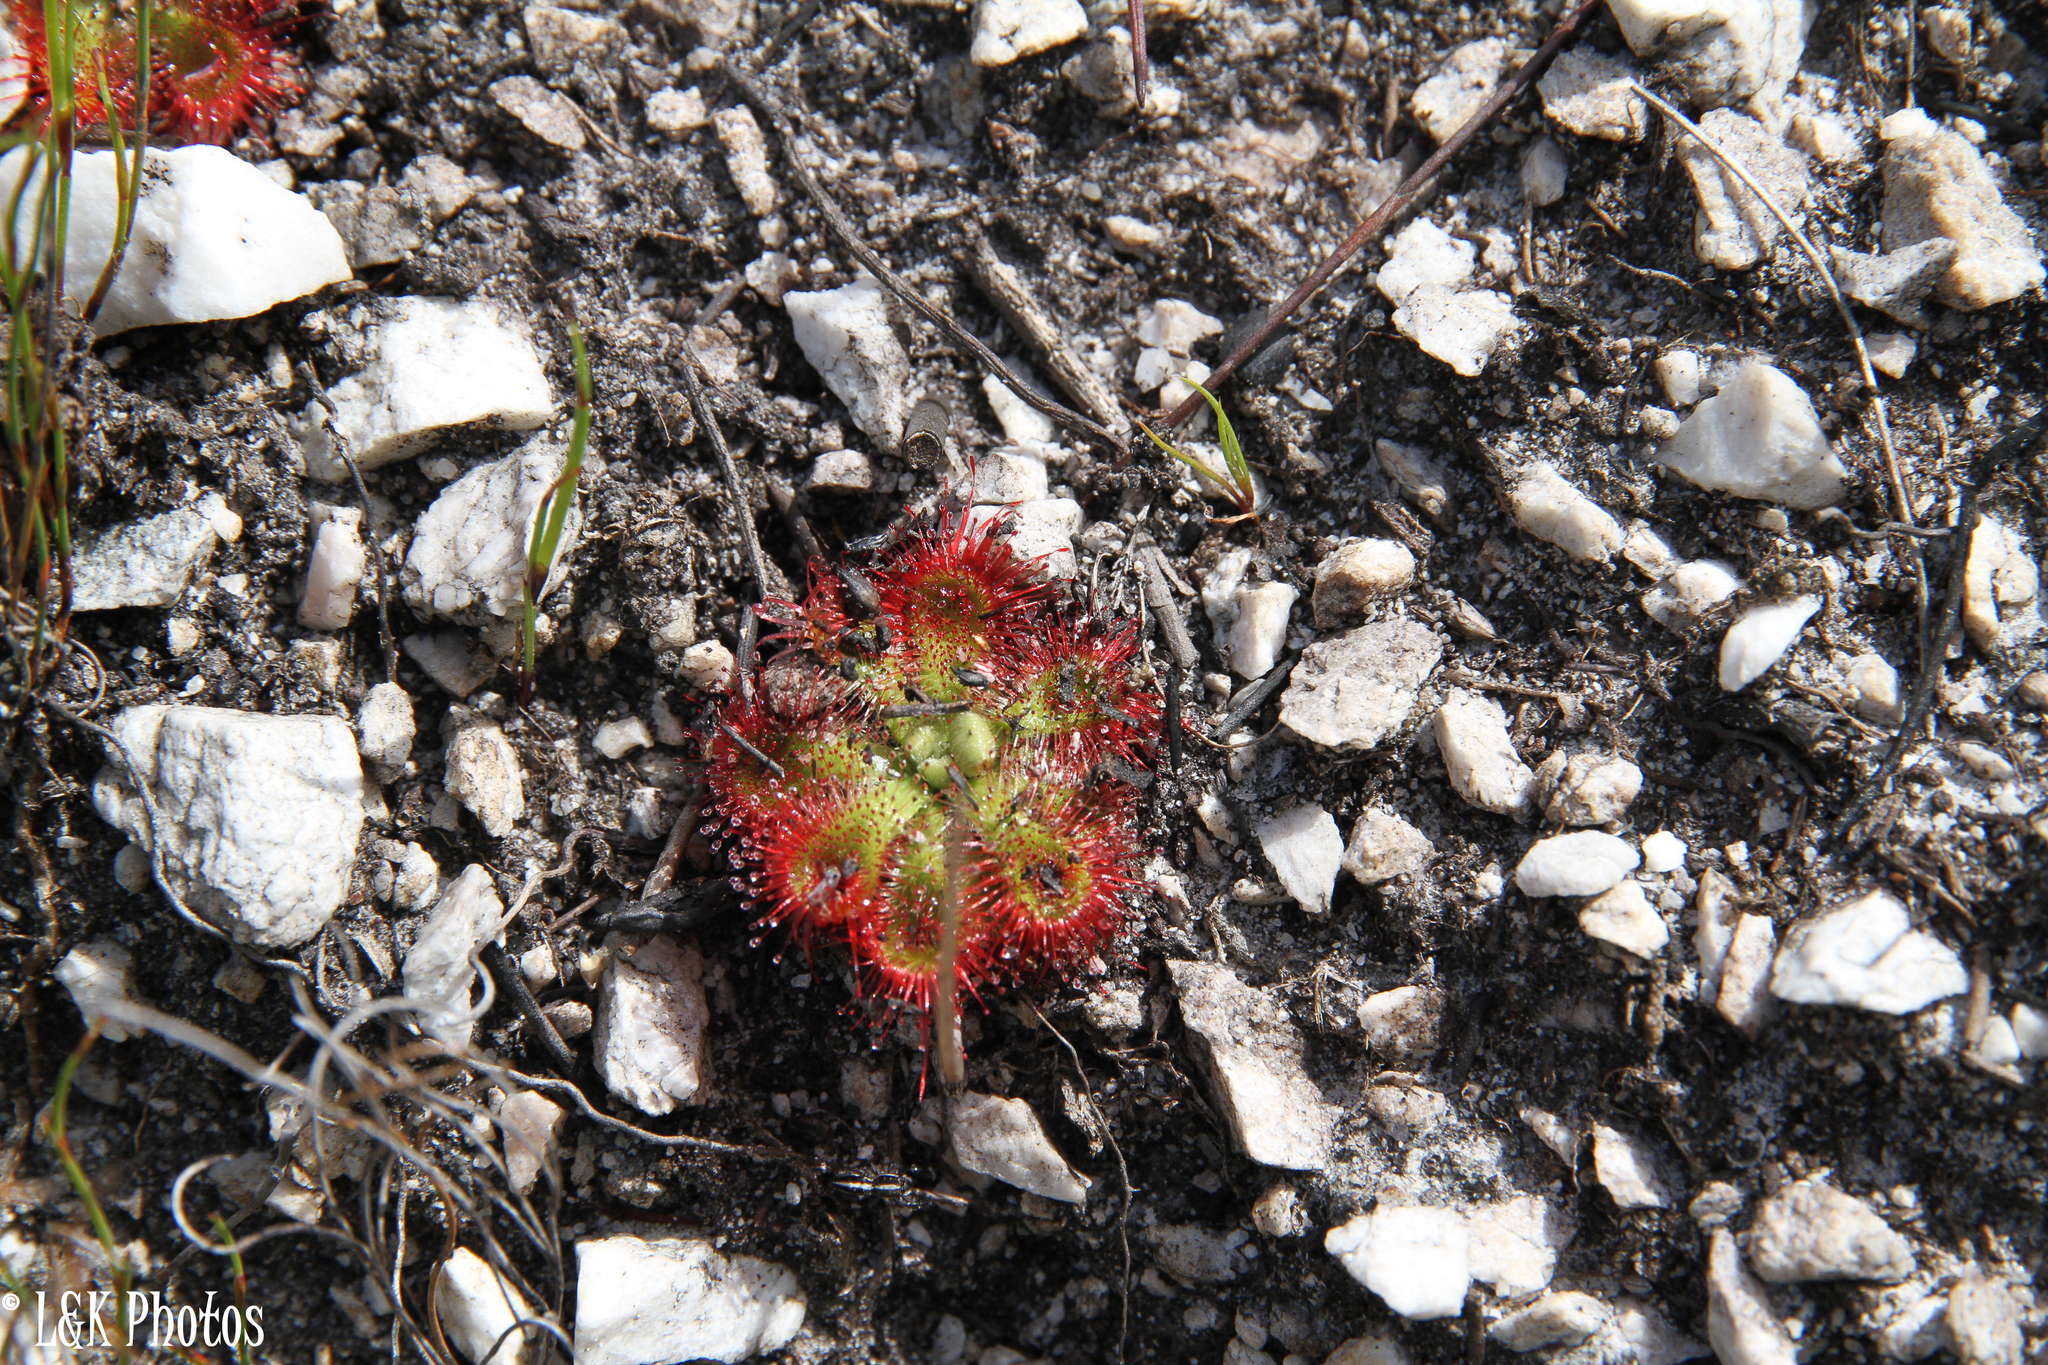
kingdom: Plantae
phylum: Tracheophyta
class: Magnoliopsida
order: Caryophyllales
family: Droseraceae
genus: Drosera
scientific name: Drosera xerophila
